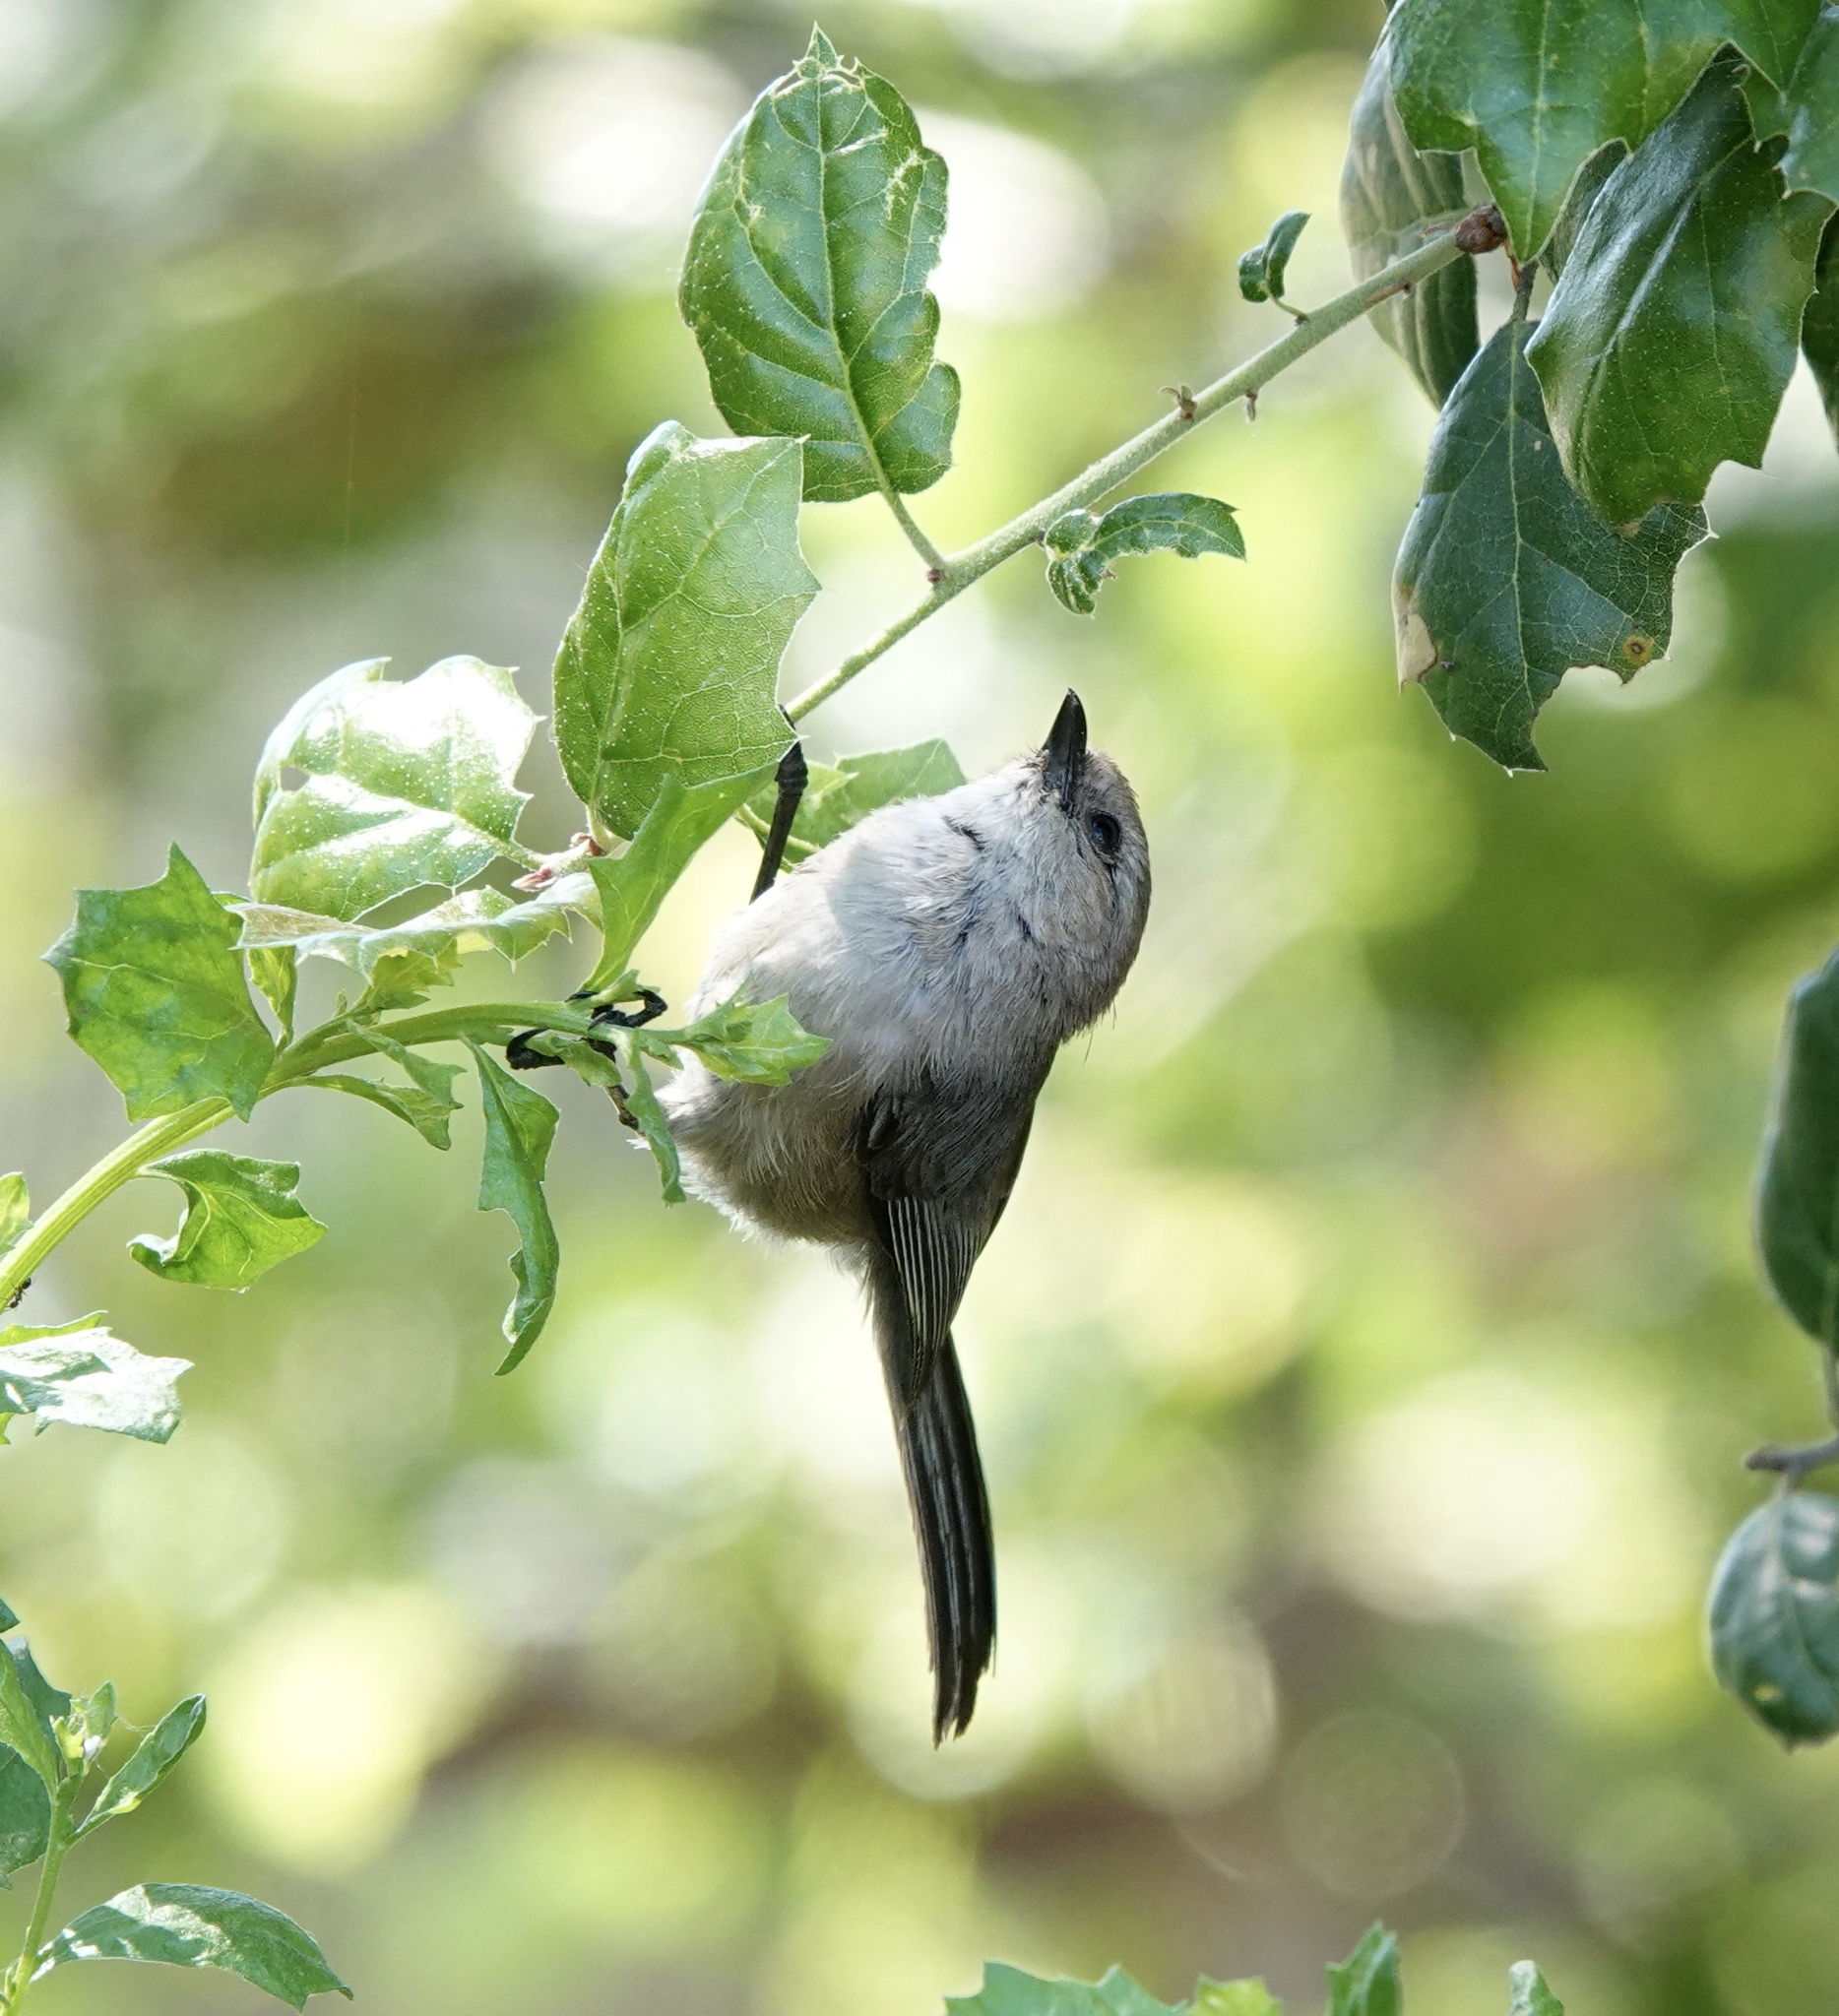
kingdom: Animalia
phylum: Chordata
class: Aves
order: Passeriformes
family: Aegithalidae
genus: Psaltriparus
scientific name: Psaltriparus minimus
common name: American bushtit
